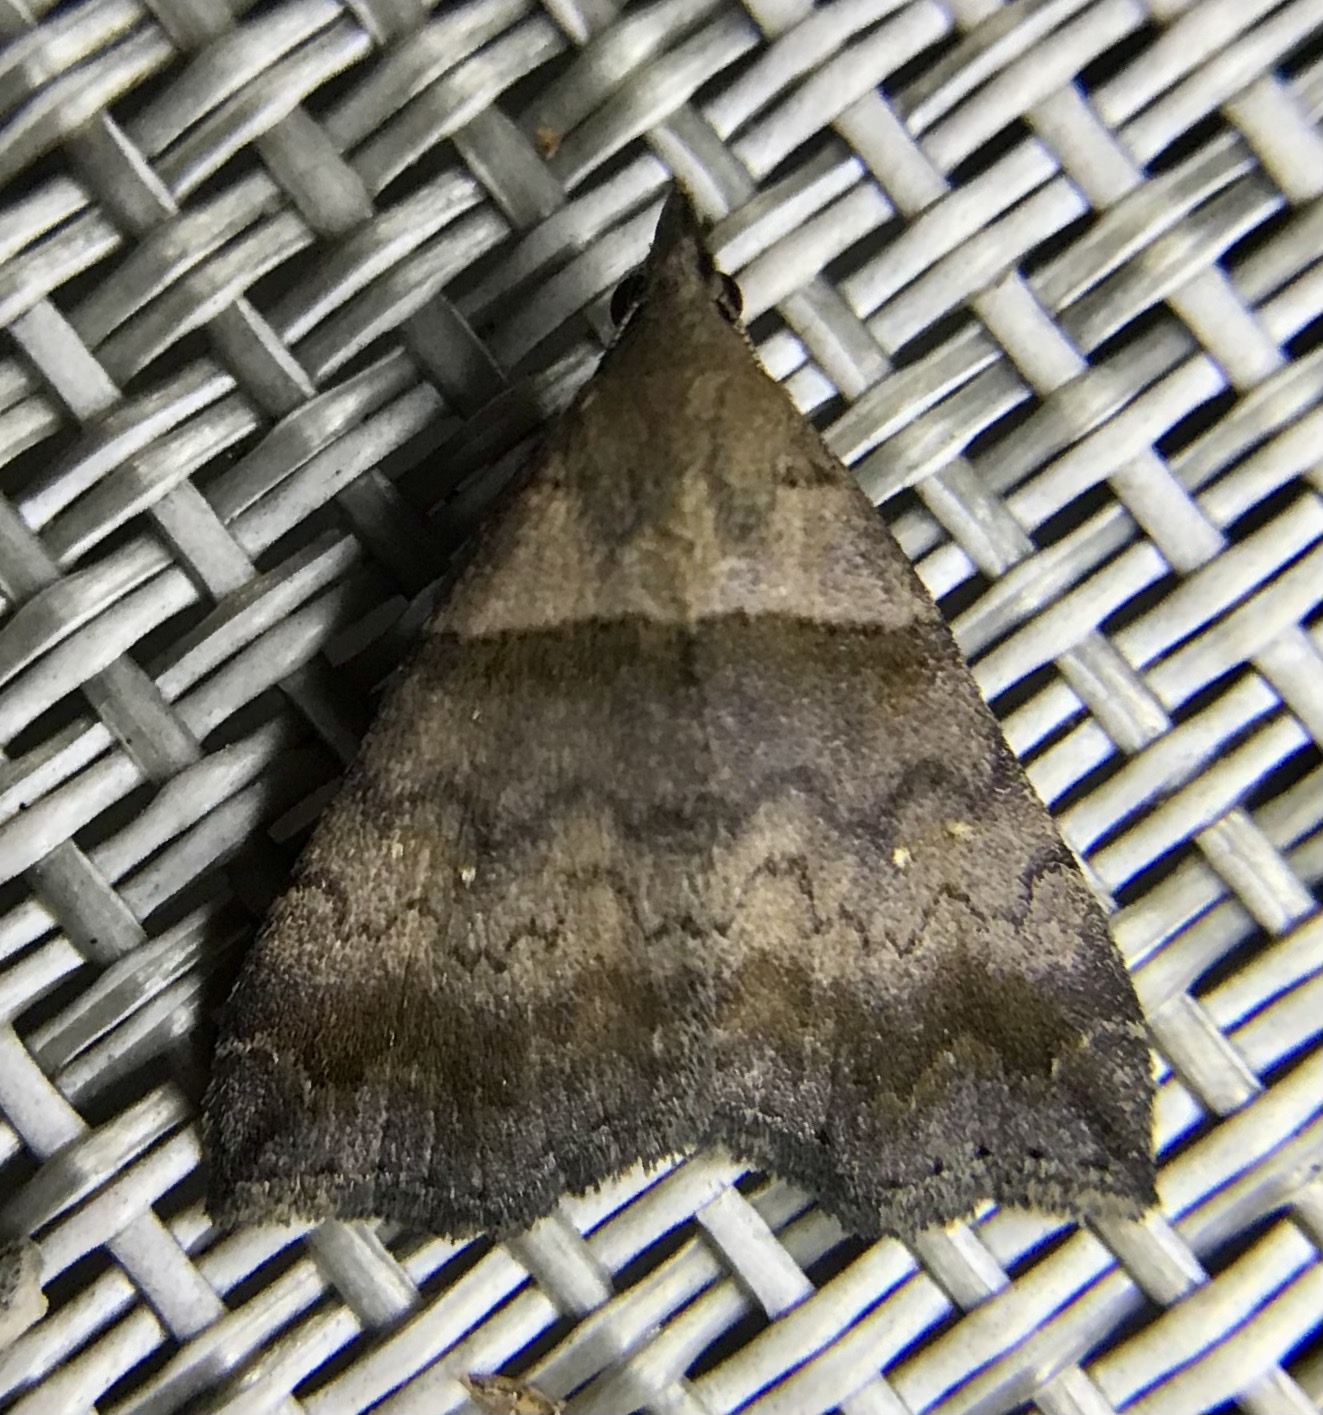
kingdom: Animalia
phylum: Arthropoda
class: Insecta
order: Lepidoptera
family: Erebidae
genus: Lascoria
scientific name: Lascoria ambigualis
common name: Ambiguous moth
